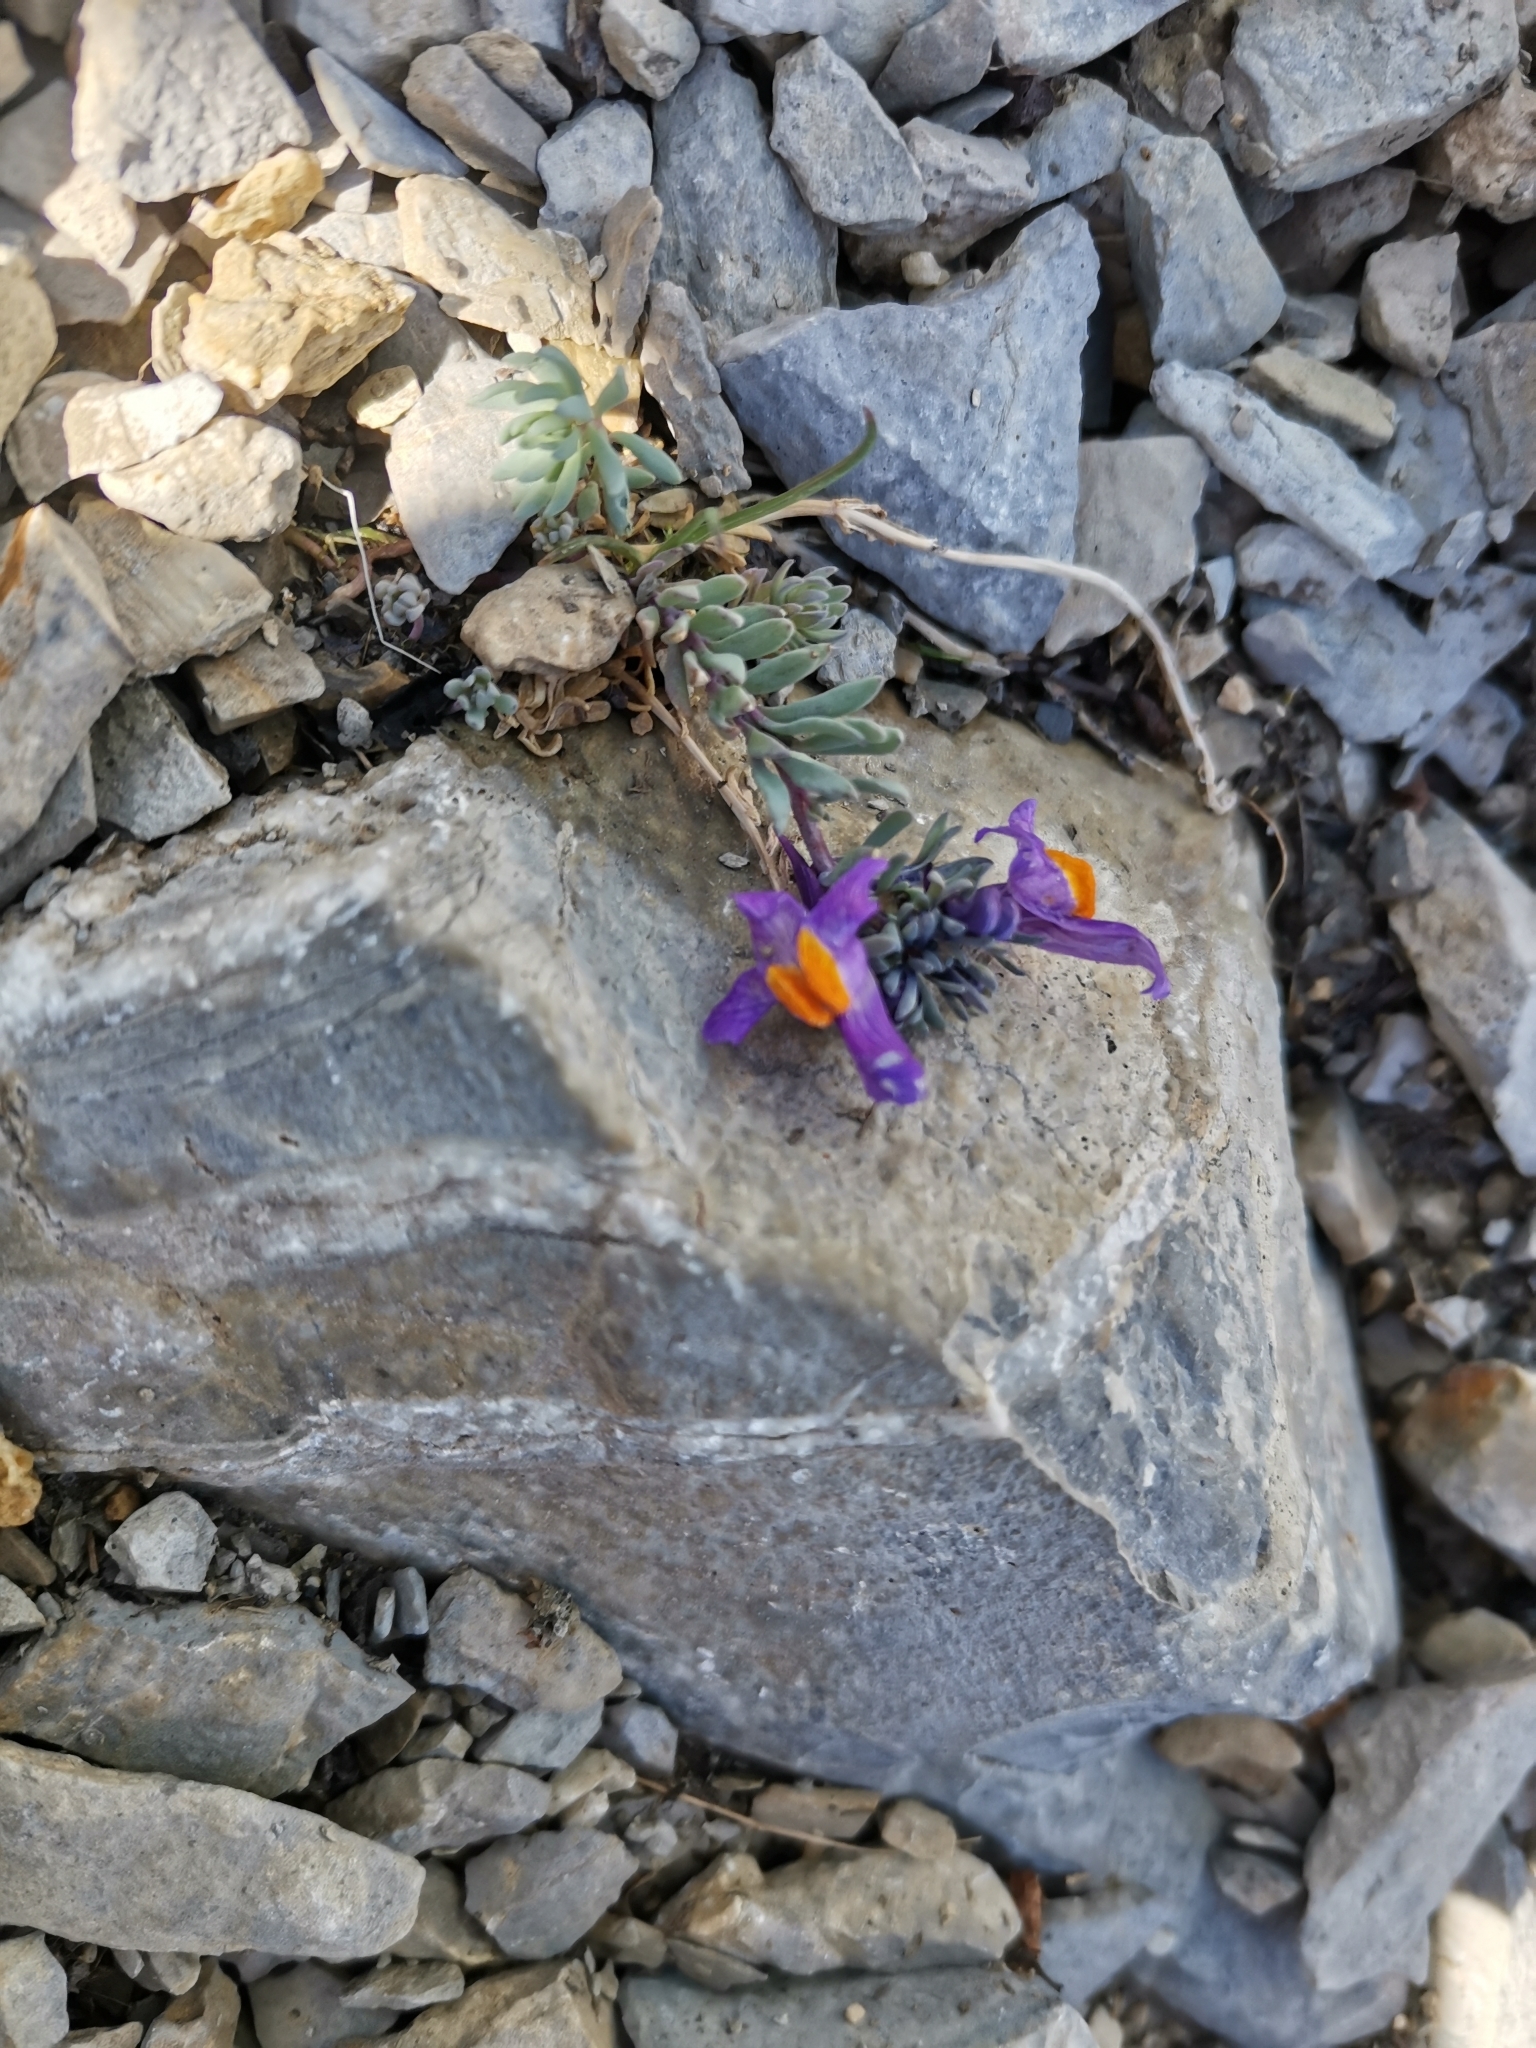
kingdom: Plantae
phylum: Tracheophyta
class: Magnoliopsida
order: Lamiales
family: Plantaginaceae
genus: Linaria
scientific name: Linaria alpina
